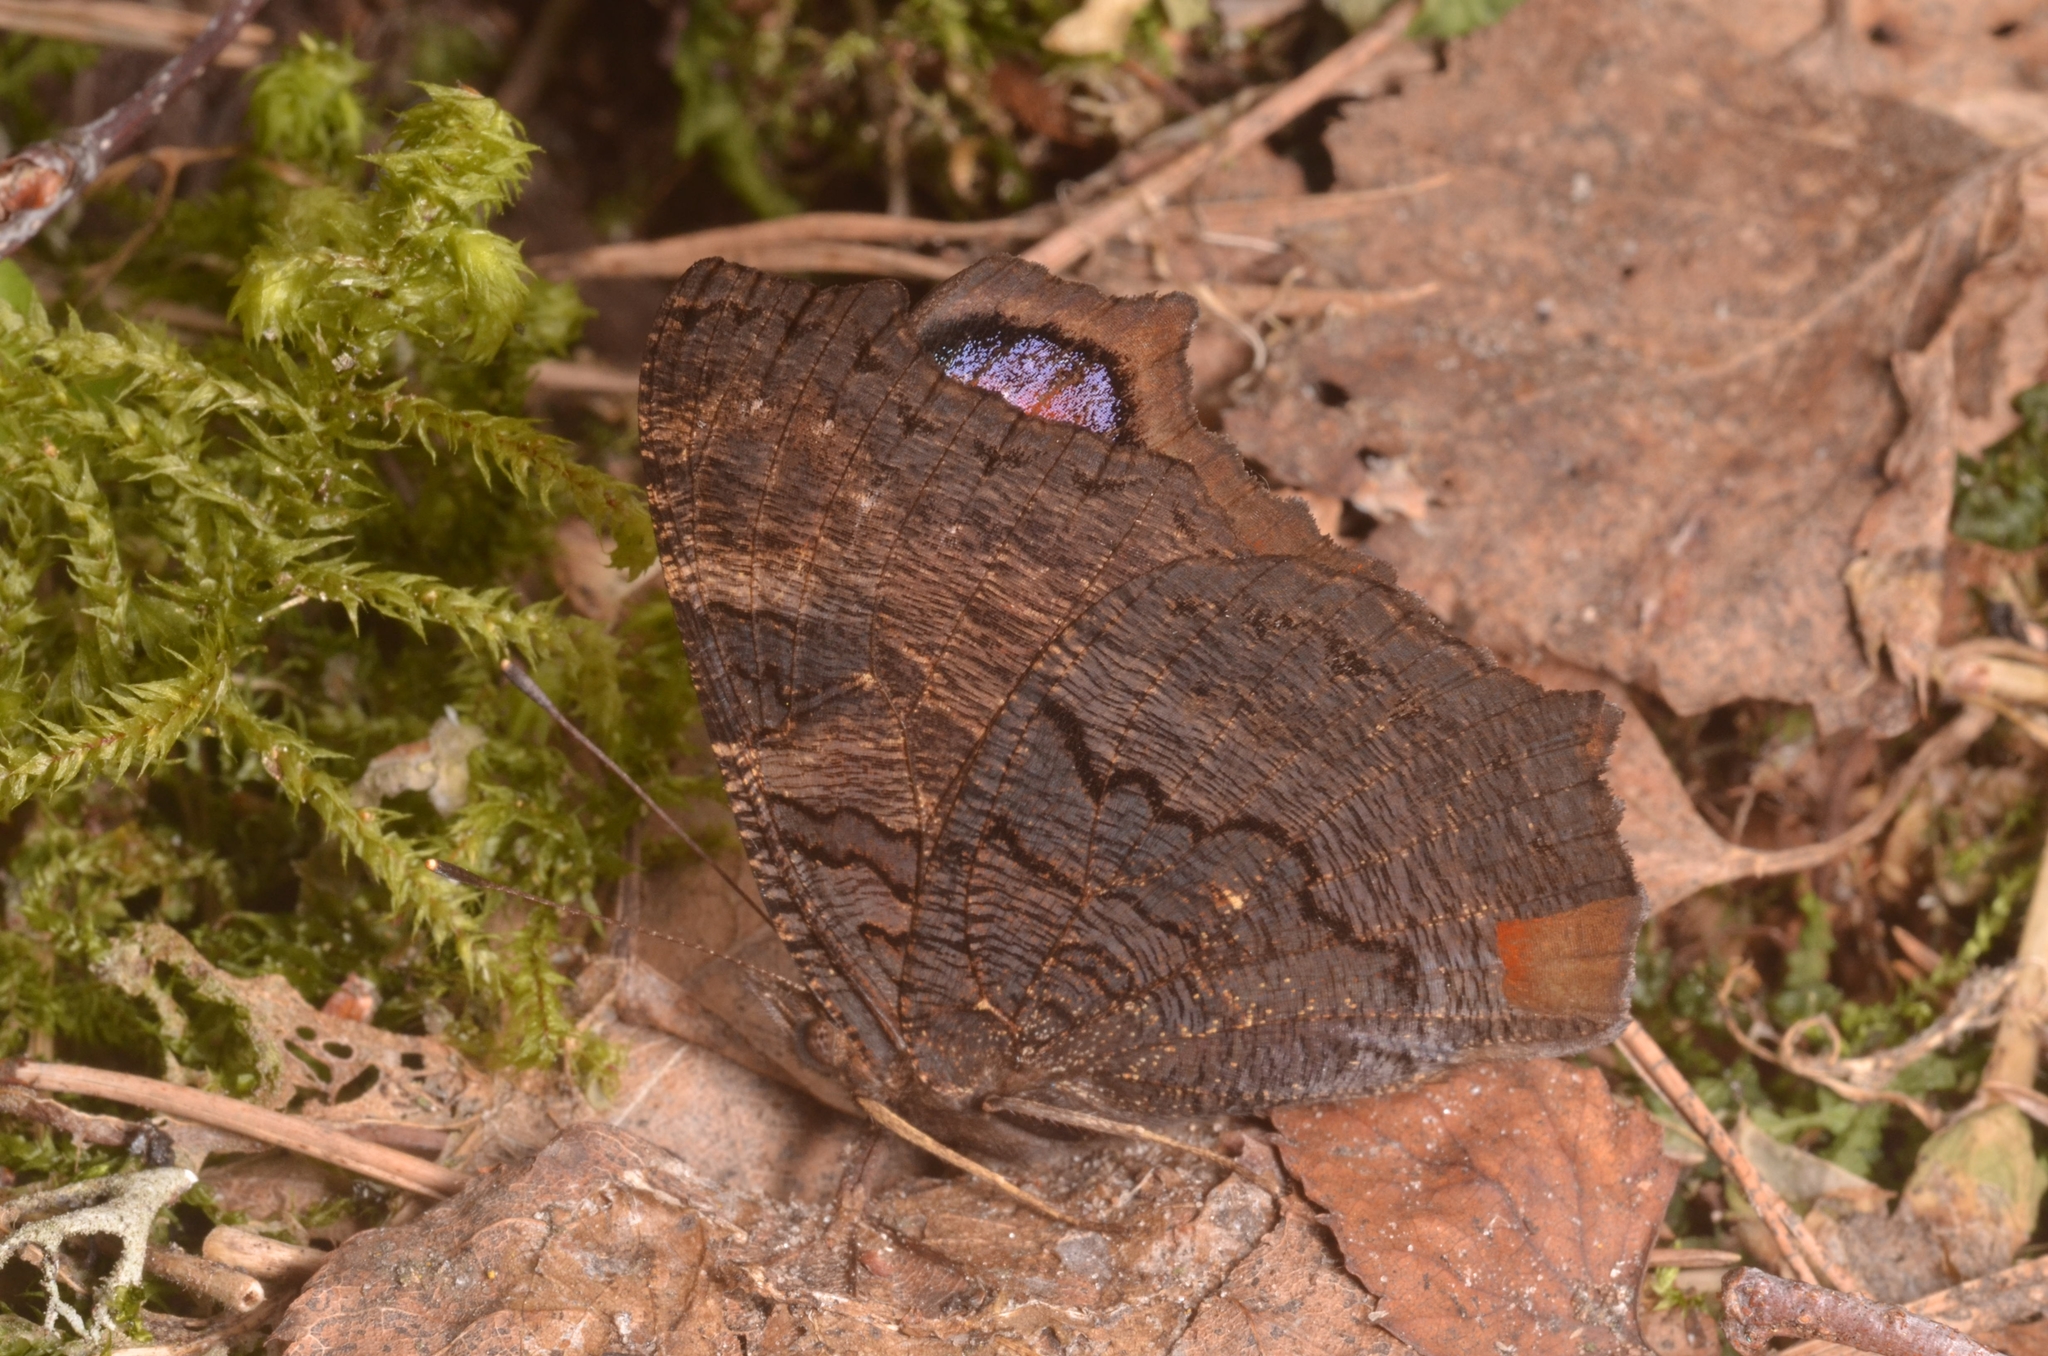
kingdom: Animalia
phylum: Arthropoda
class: Insecta
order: Lepidoptera
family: Nymphalidae
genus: Aglais
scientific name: Aglais io
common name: Peacock
